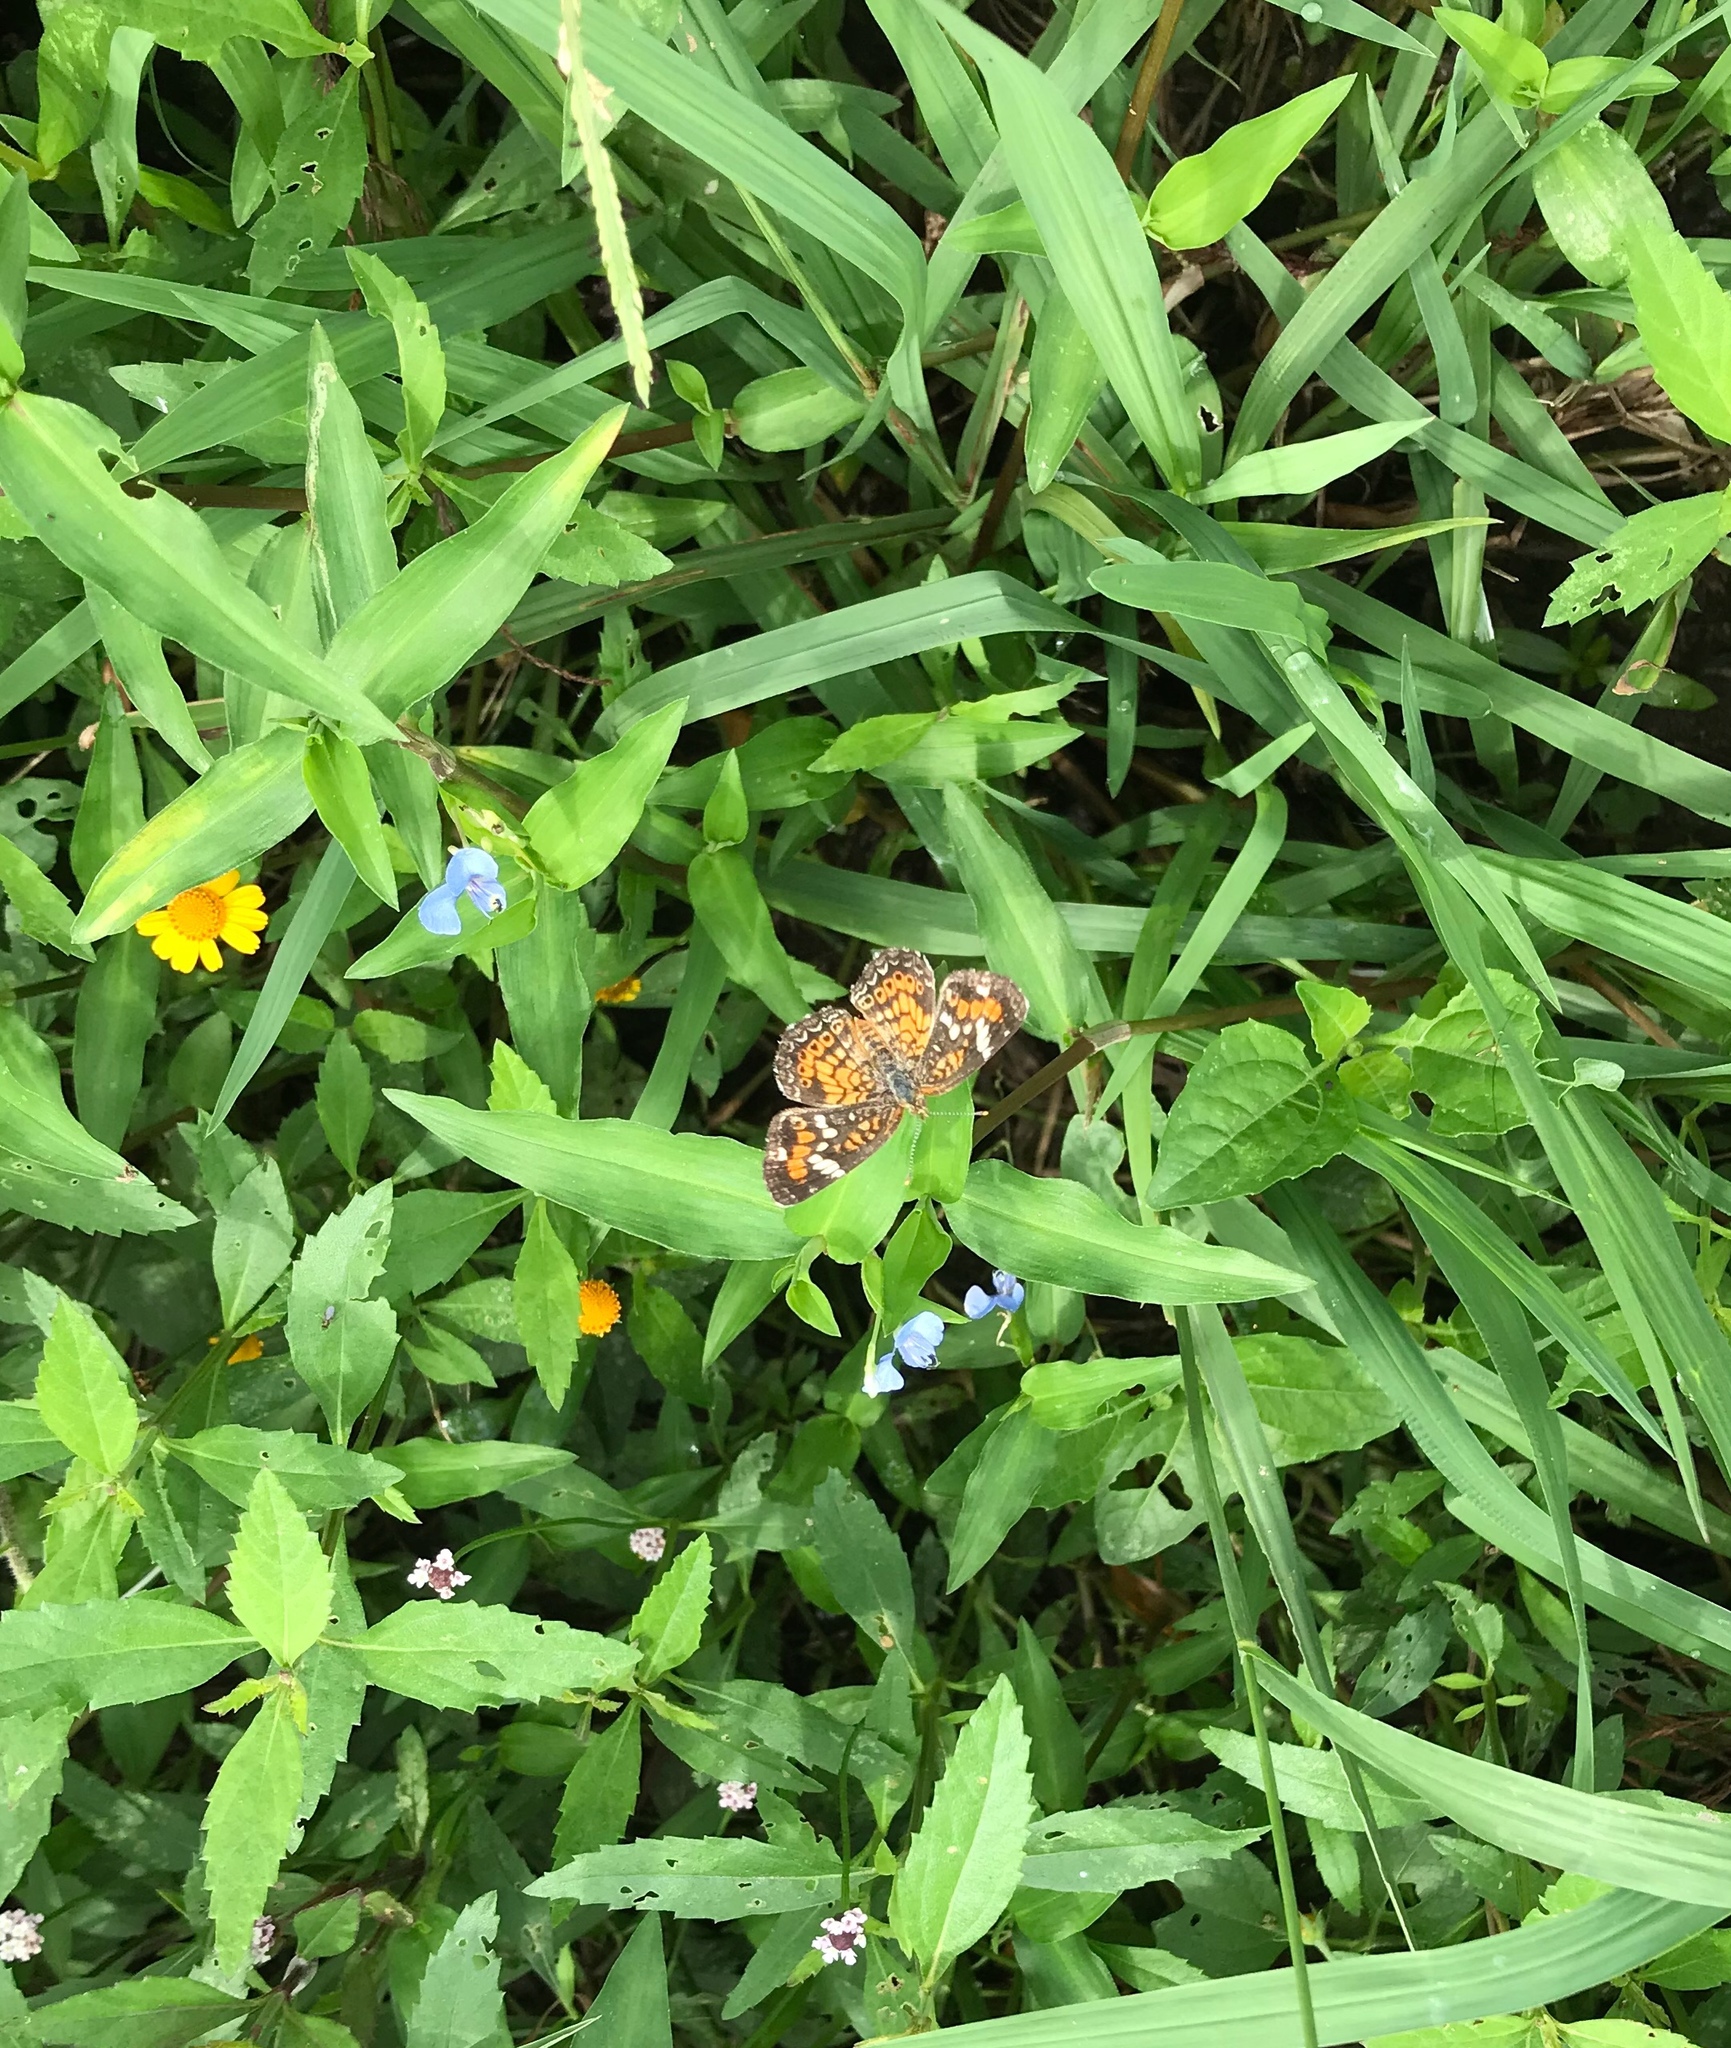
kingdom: Animalia
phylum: Arthropoda
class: Insecta
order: Lepidoptera
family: Nymphalidae
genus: Phyciodes
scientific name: Phyciodes phaon
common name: Phaon crescent
